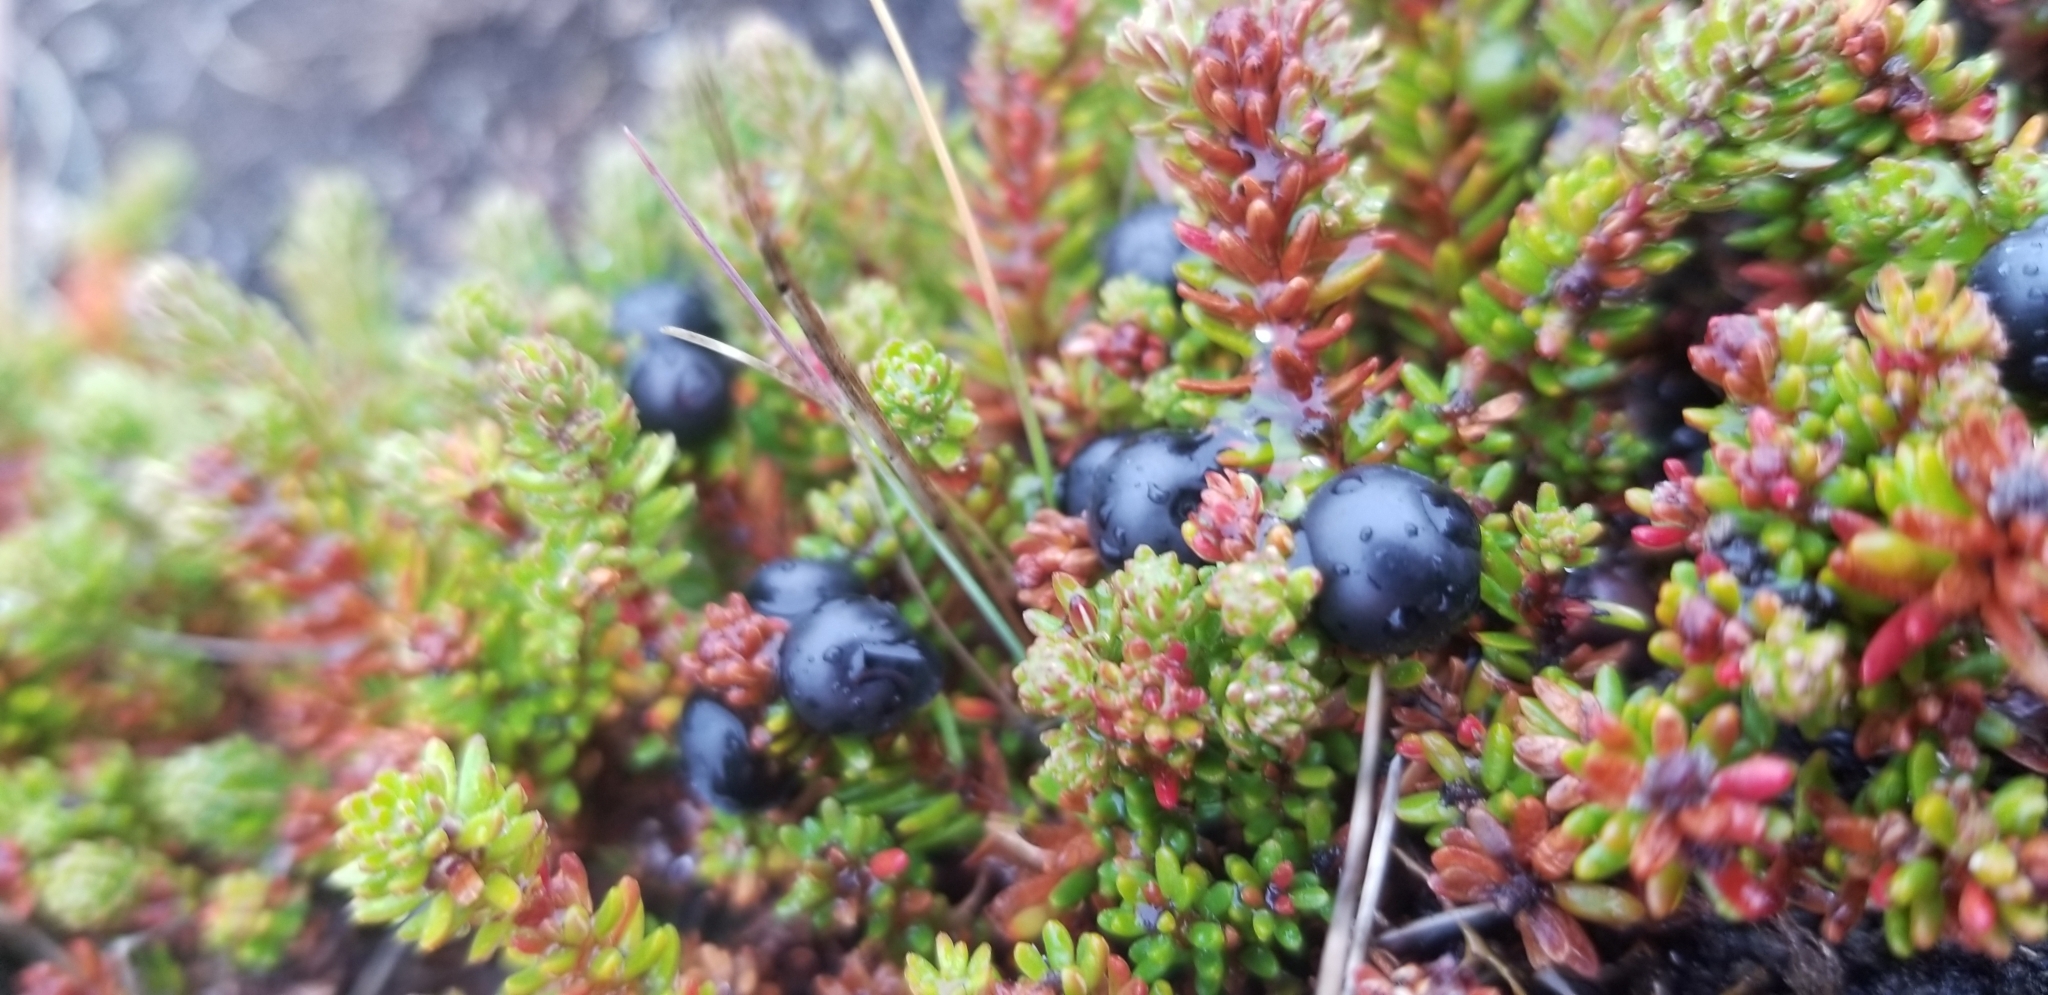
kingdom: Plantae
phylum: Tracheophyta
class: Magnoliopsida
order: Ericales
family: Ericaceae
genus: Empetrum
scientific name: Empetrum nigrum
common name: Black crowberry
